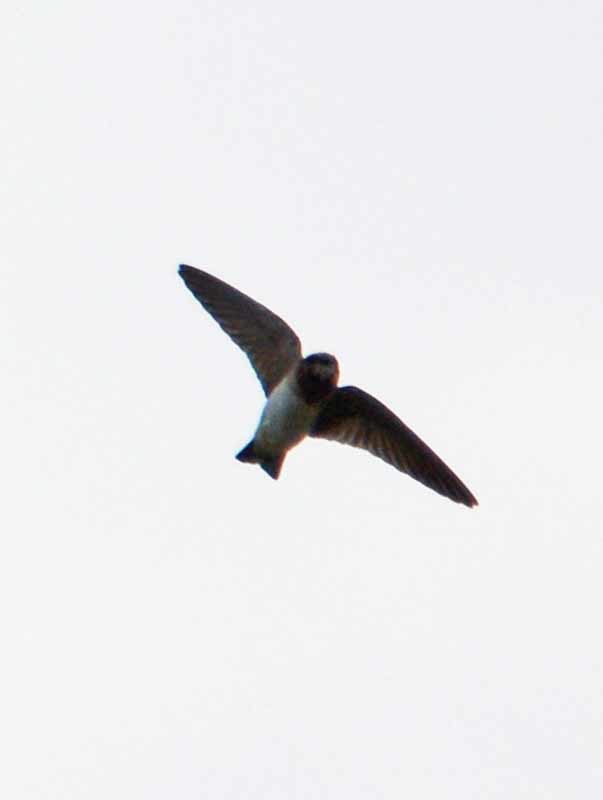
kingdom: Animalia
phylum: Chordata
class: Aves
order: Passeriformes
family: Hirundinidae
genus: Petrochelidon
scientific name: Petrochelidon fulva
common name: Cave swallow
